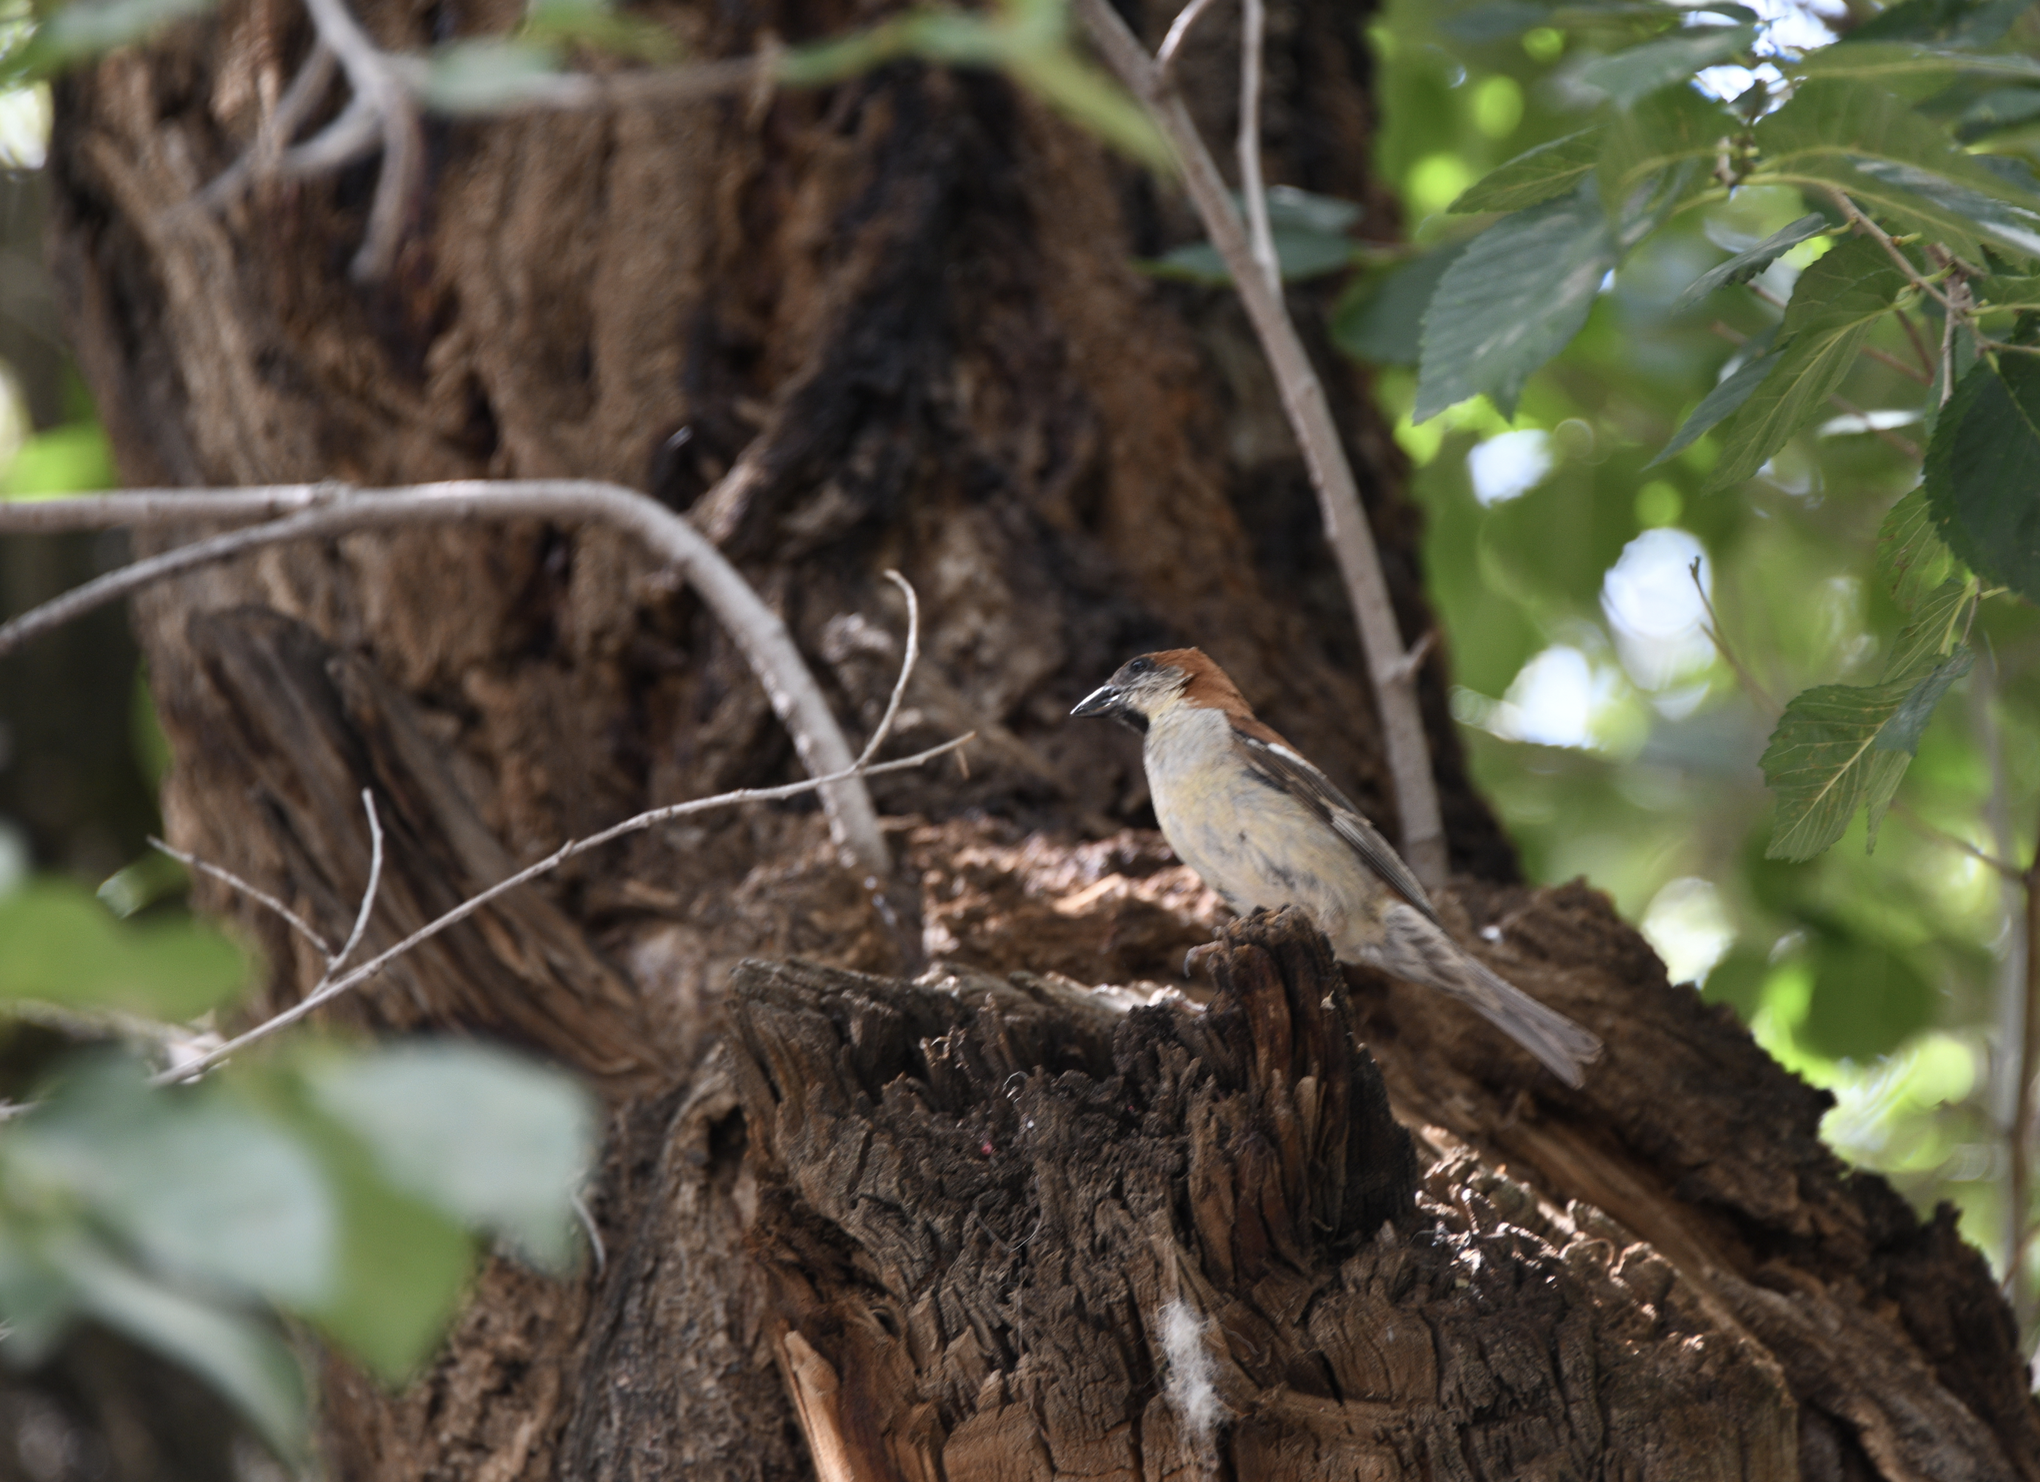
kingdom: Animalia
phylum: Chordata
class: Aves
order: Passeriformes
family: Passeridae
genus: Passer
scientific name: Passer cinnamomeus
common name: Russet sparrow
